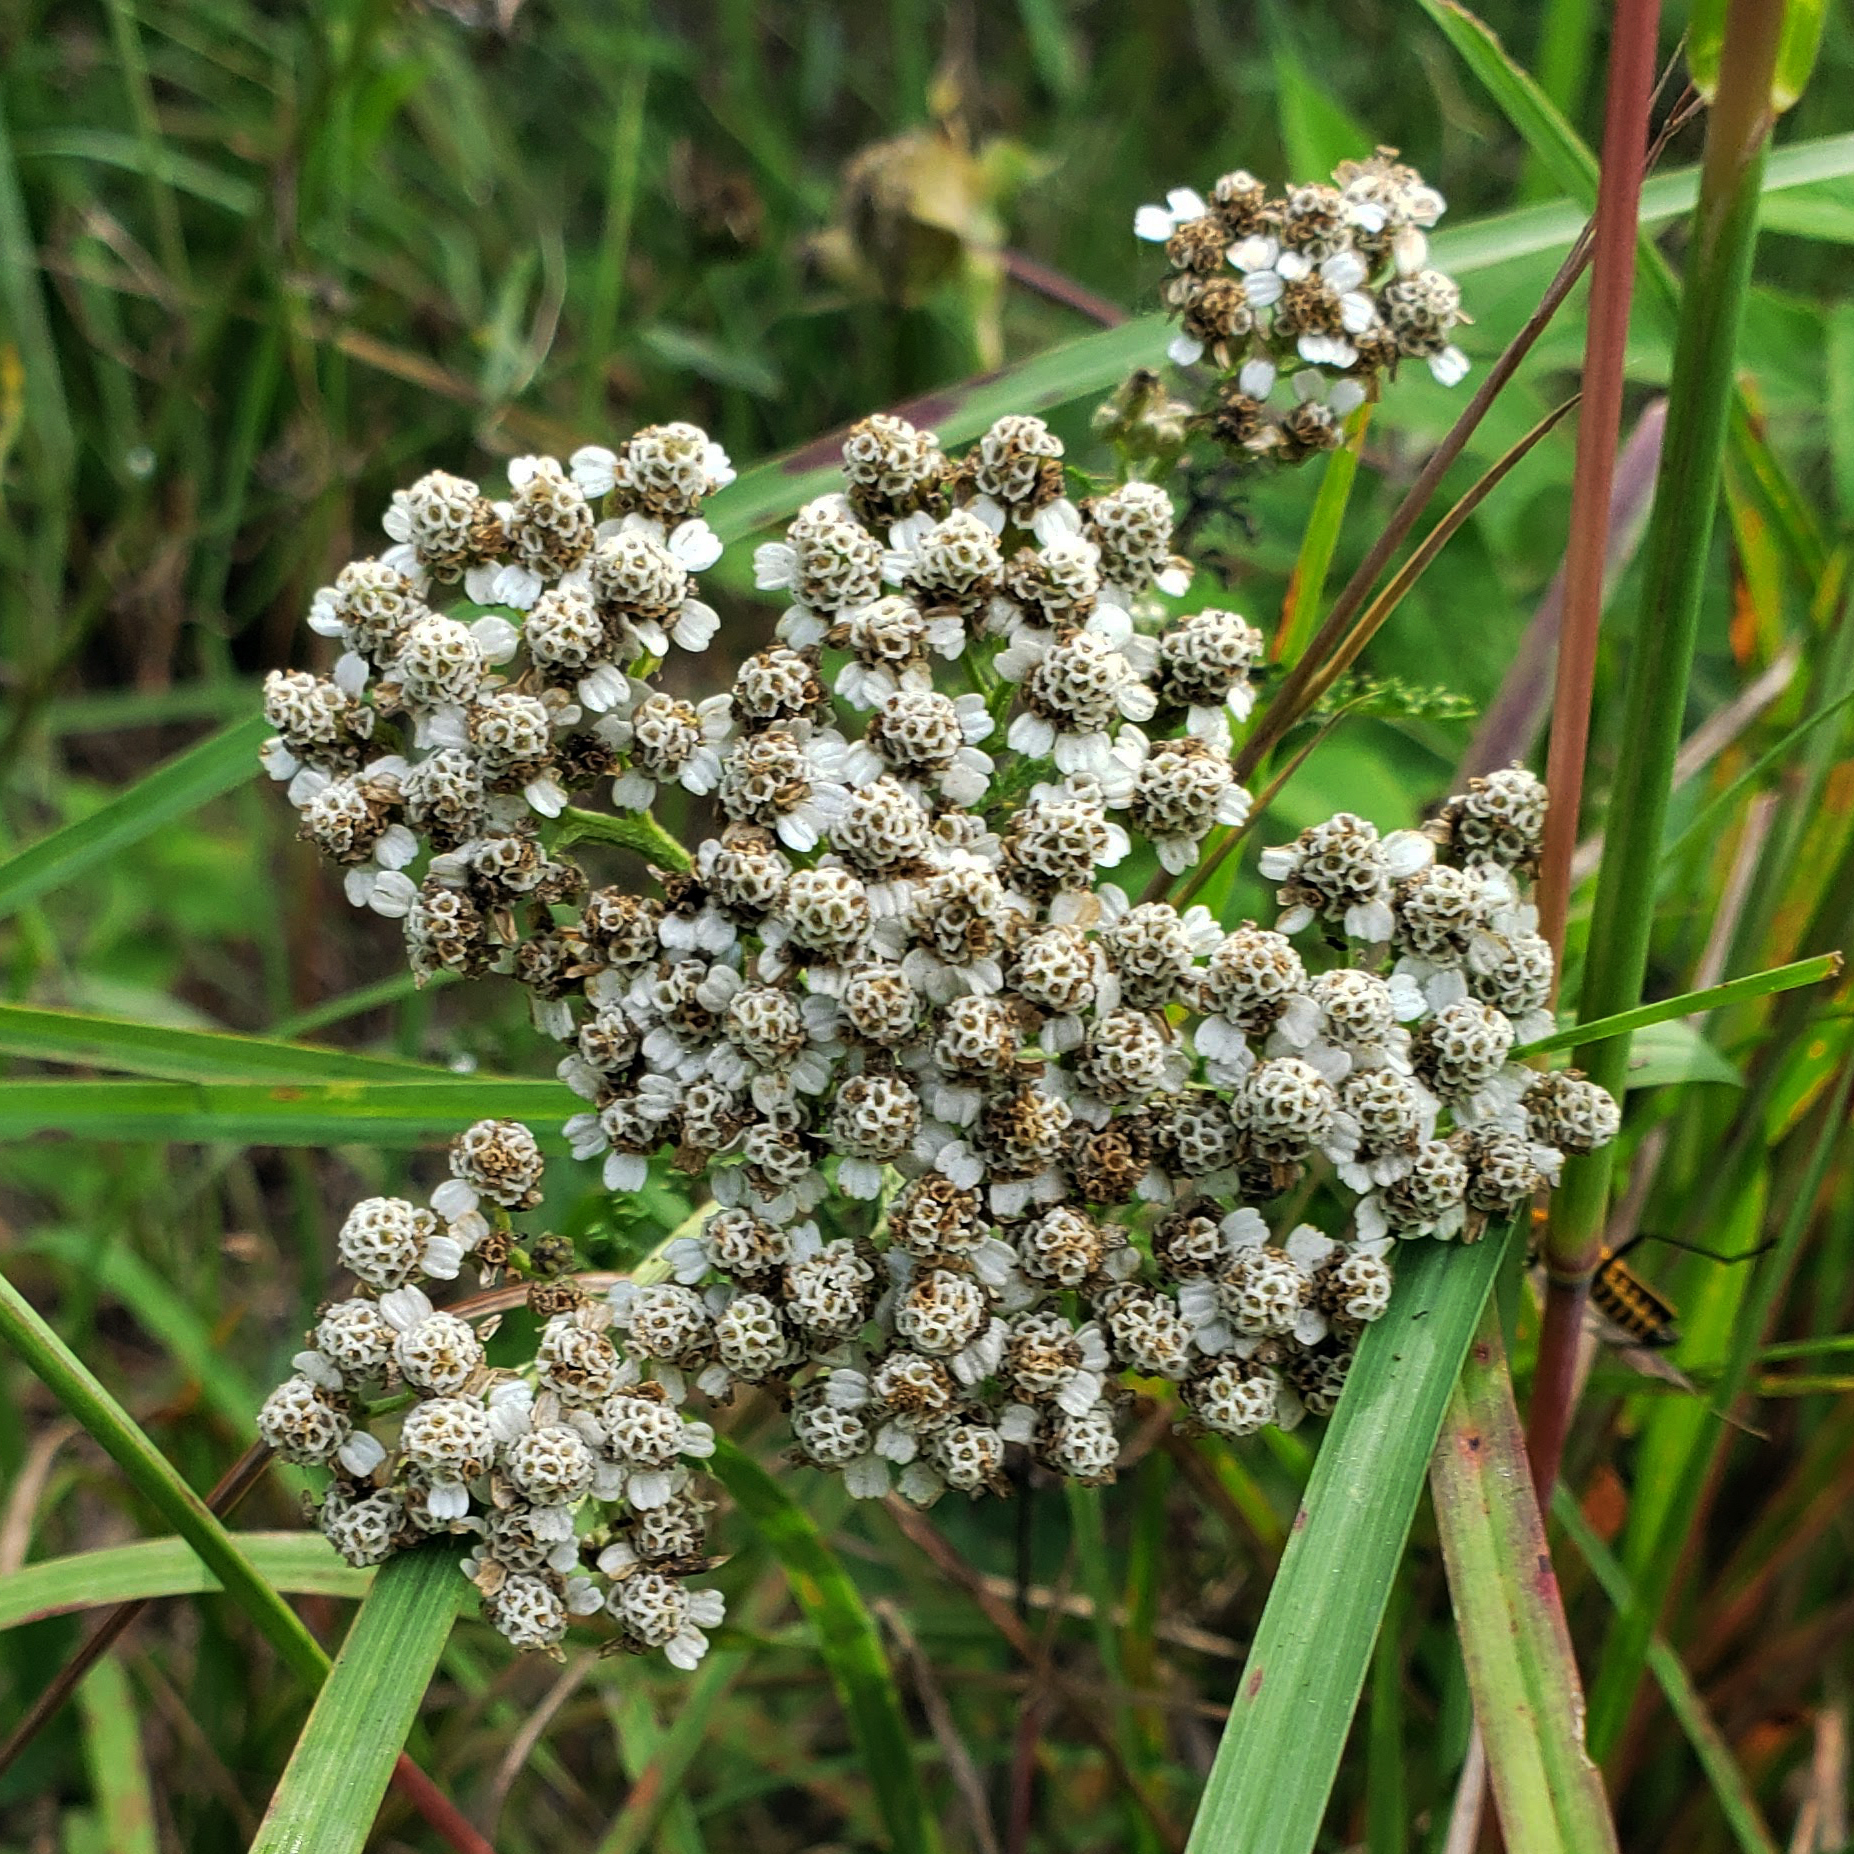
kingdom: Plantae
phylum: Tracheophyta
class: Magnoliopsida
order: Asterales
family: Asteraceae
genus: Achillea
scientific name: Achillea millefolium
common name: Yarrow
